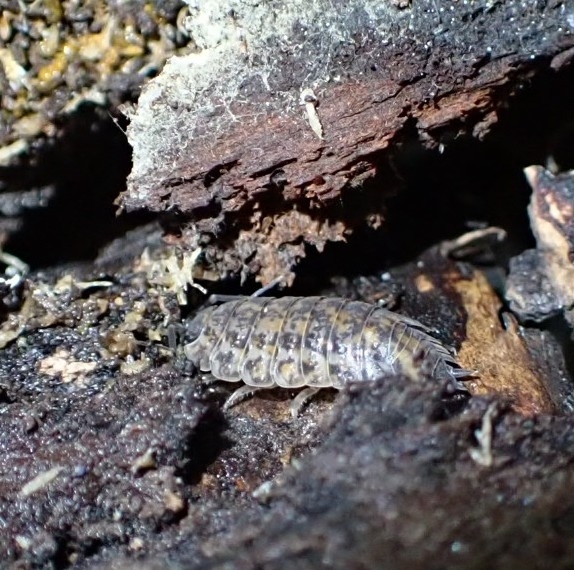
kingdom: Animalia
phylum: Arthropoda
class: Malacostraca
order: Isopoda
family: Trachelipodidae
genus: Trachelipus
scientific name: Trachelipus rathkii
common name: Isopod
